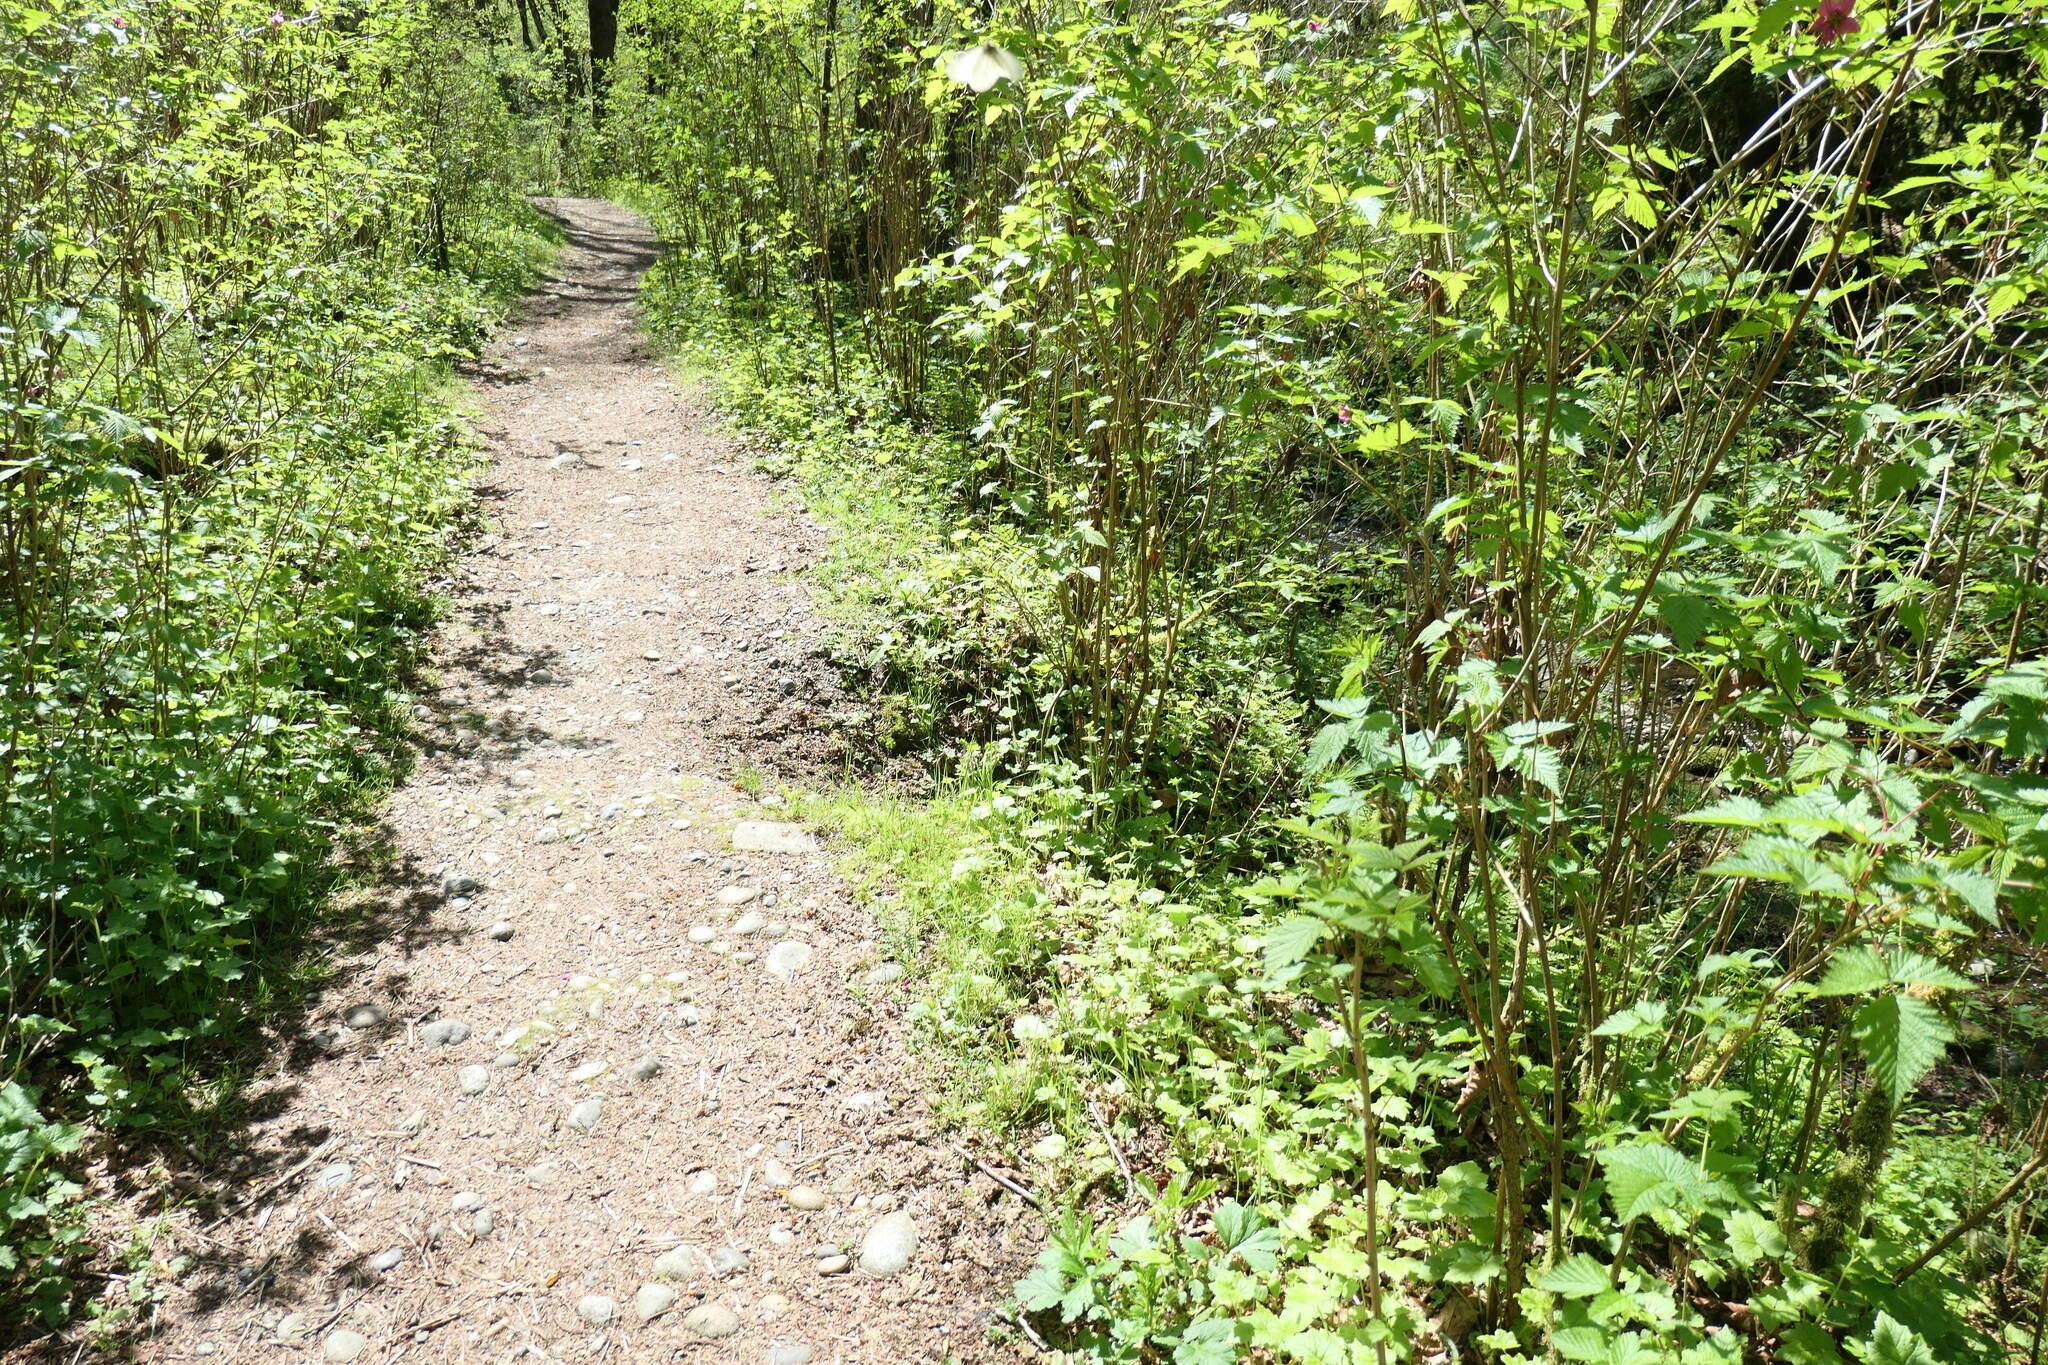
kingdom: Animalia
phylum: Arthropoda
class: Insecta
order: Lepidoptera
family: Pieridae
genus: Pieris
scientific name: Pieris marginalis
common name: Margined white
